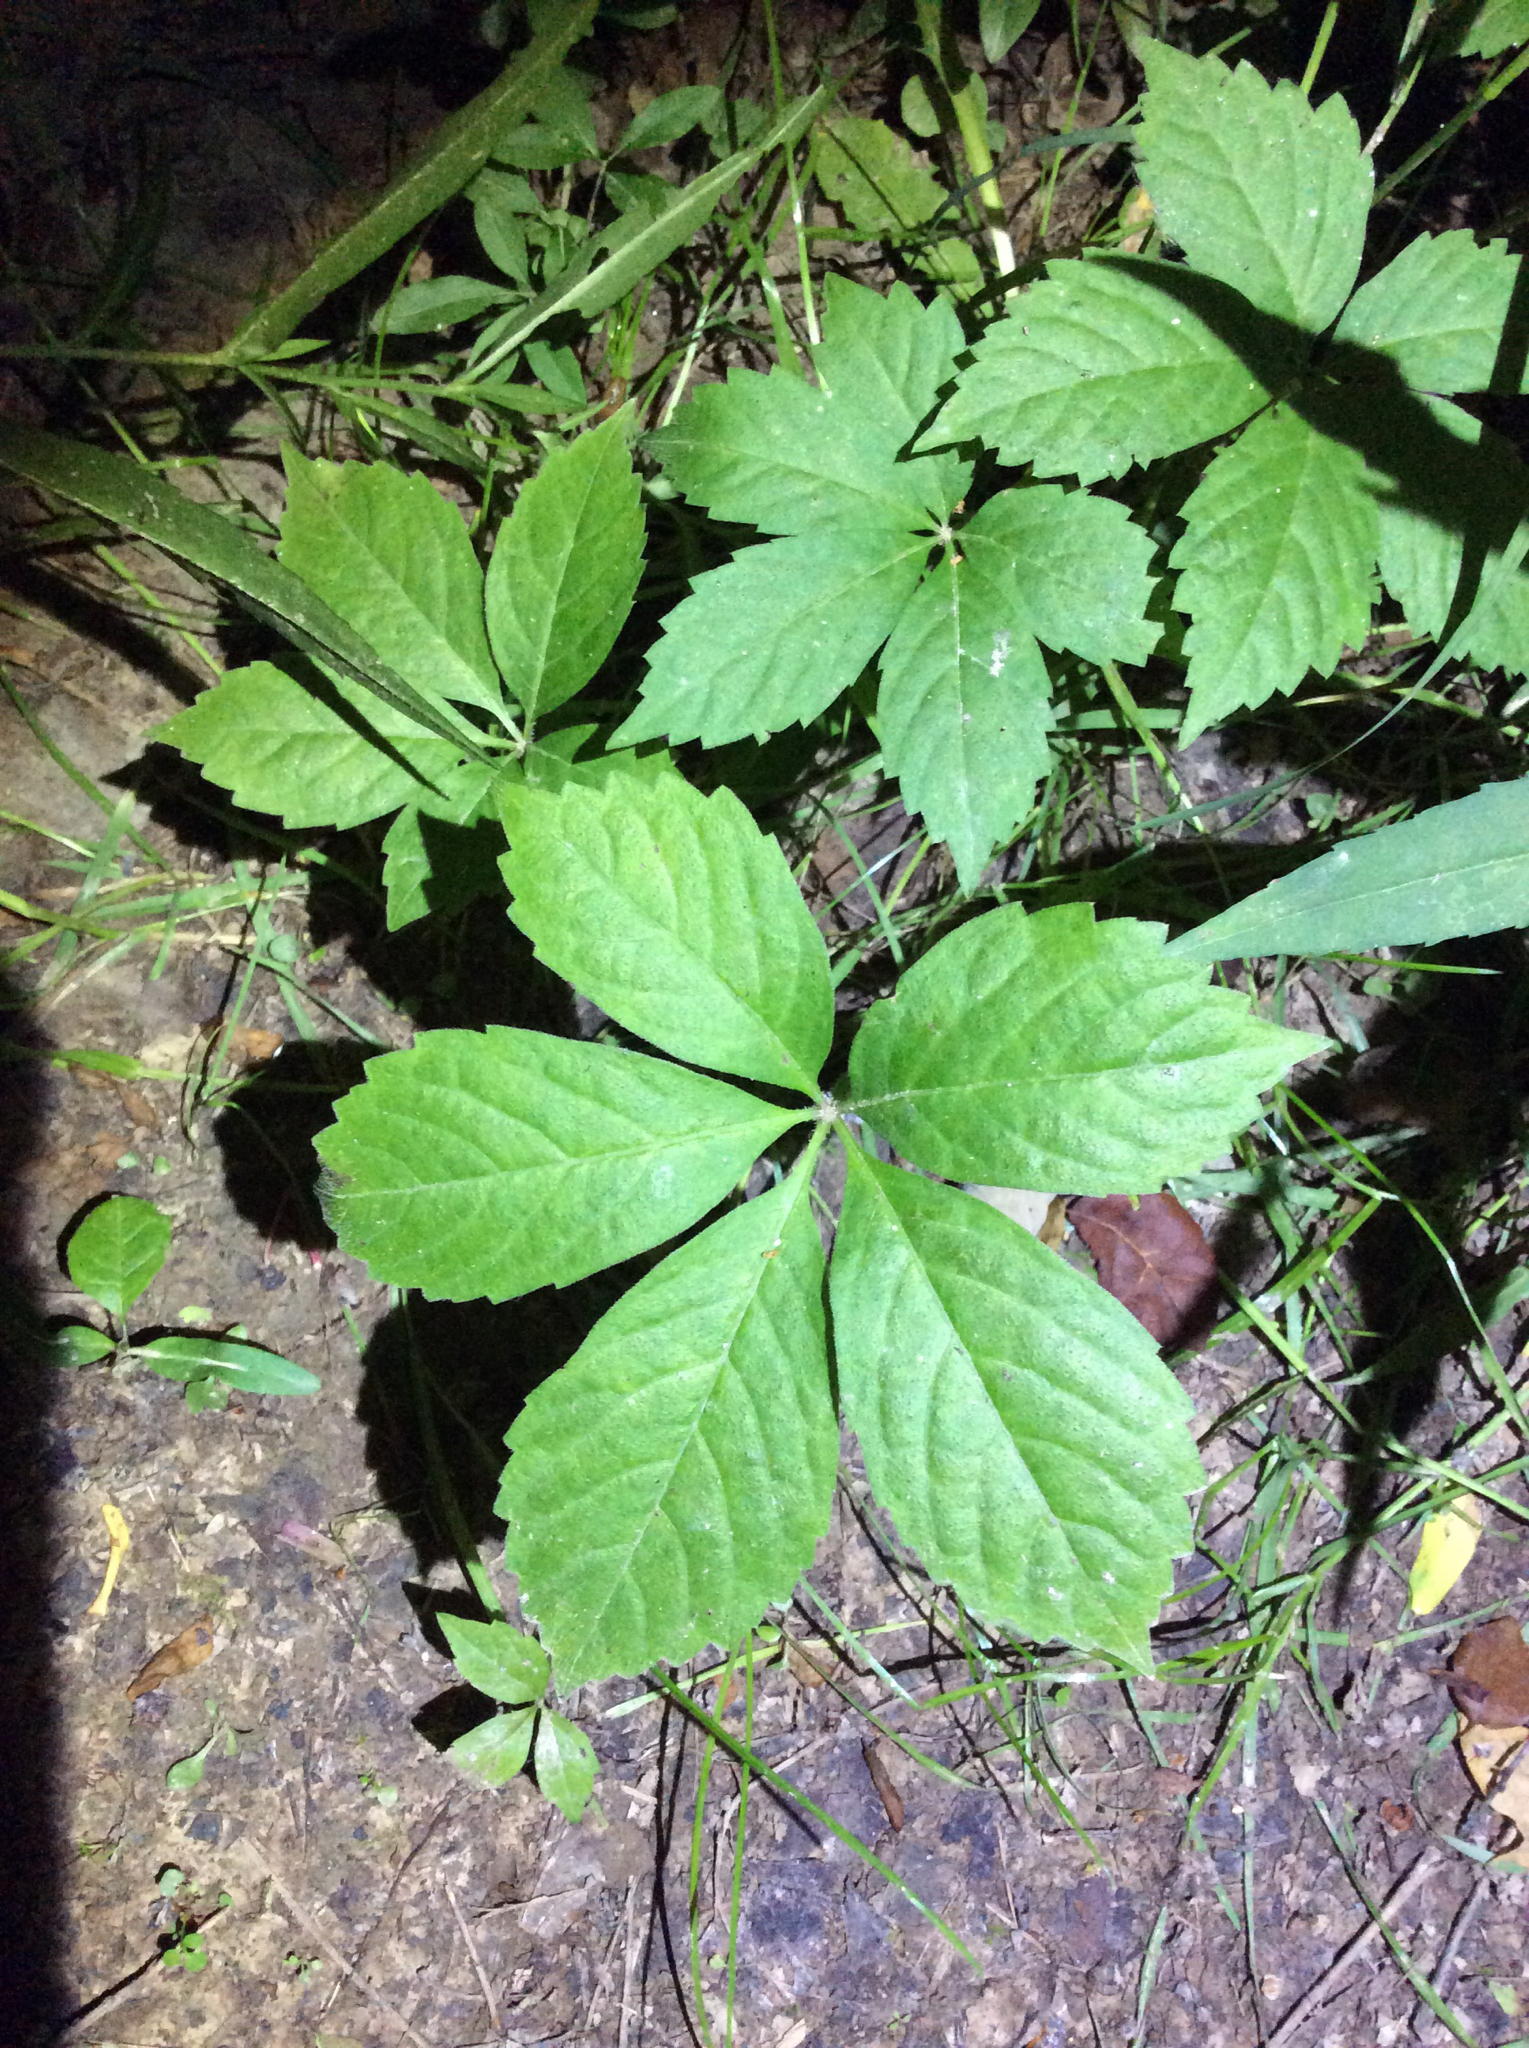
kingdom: Plantae
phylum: Tracheophyta
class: Magnoliopsida
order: Vitales
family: Vitaceae
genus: Parthenocissus
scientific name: Parthenocissus quinquefolia
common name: Virginia-creeper
